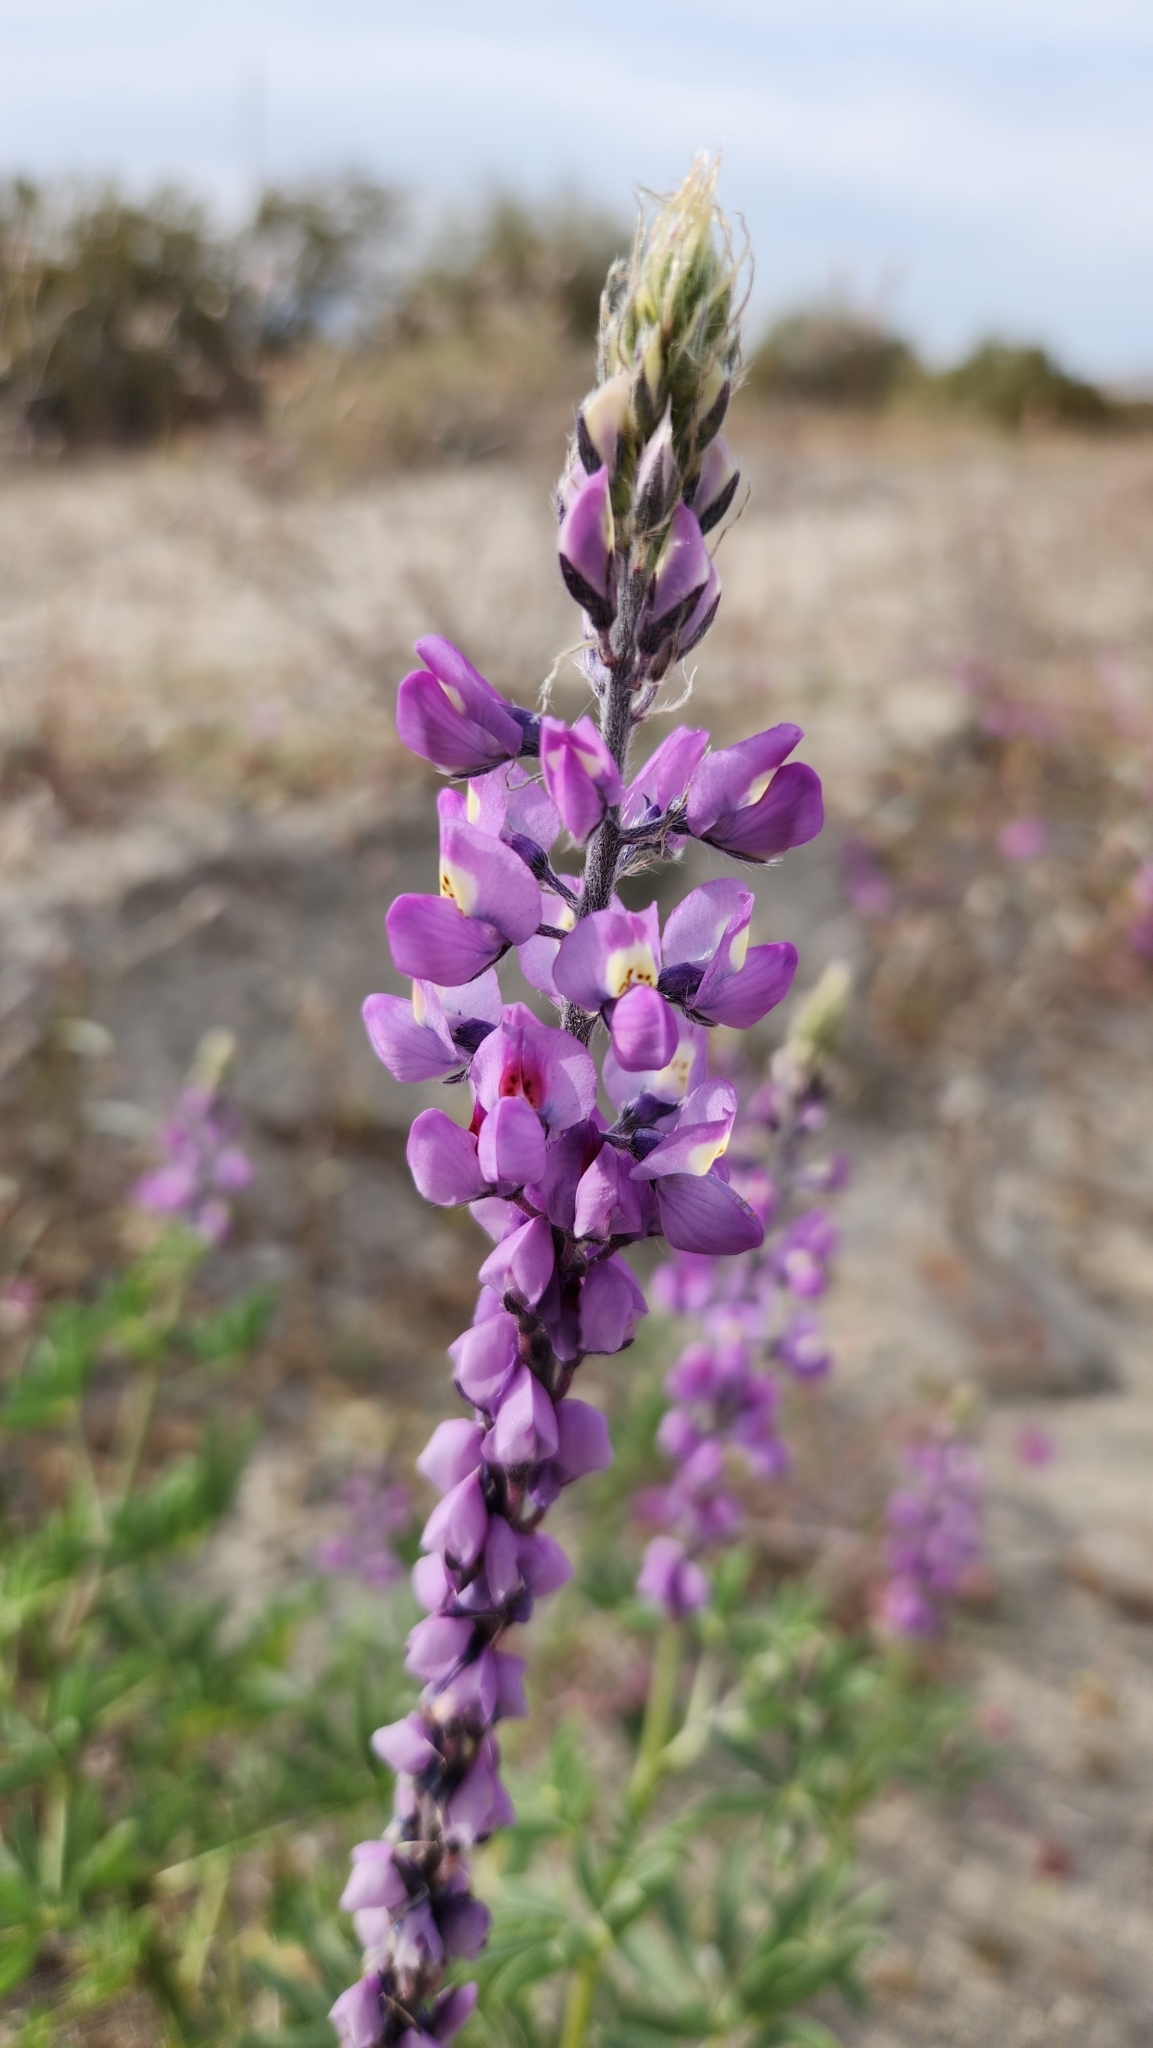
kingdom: Plantae
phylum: Tracheophyta
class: Magnoliopsida
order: Fabales
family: Fabaceae
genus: Lupinus
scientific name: Lupinus arizonicus
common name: Arizona lupine
